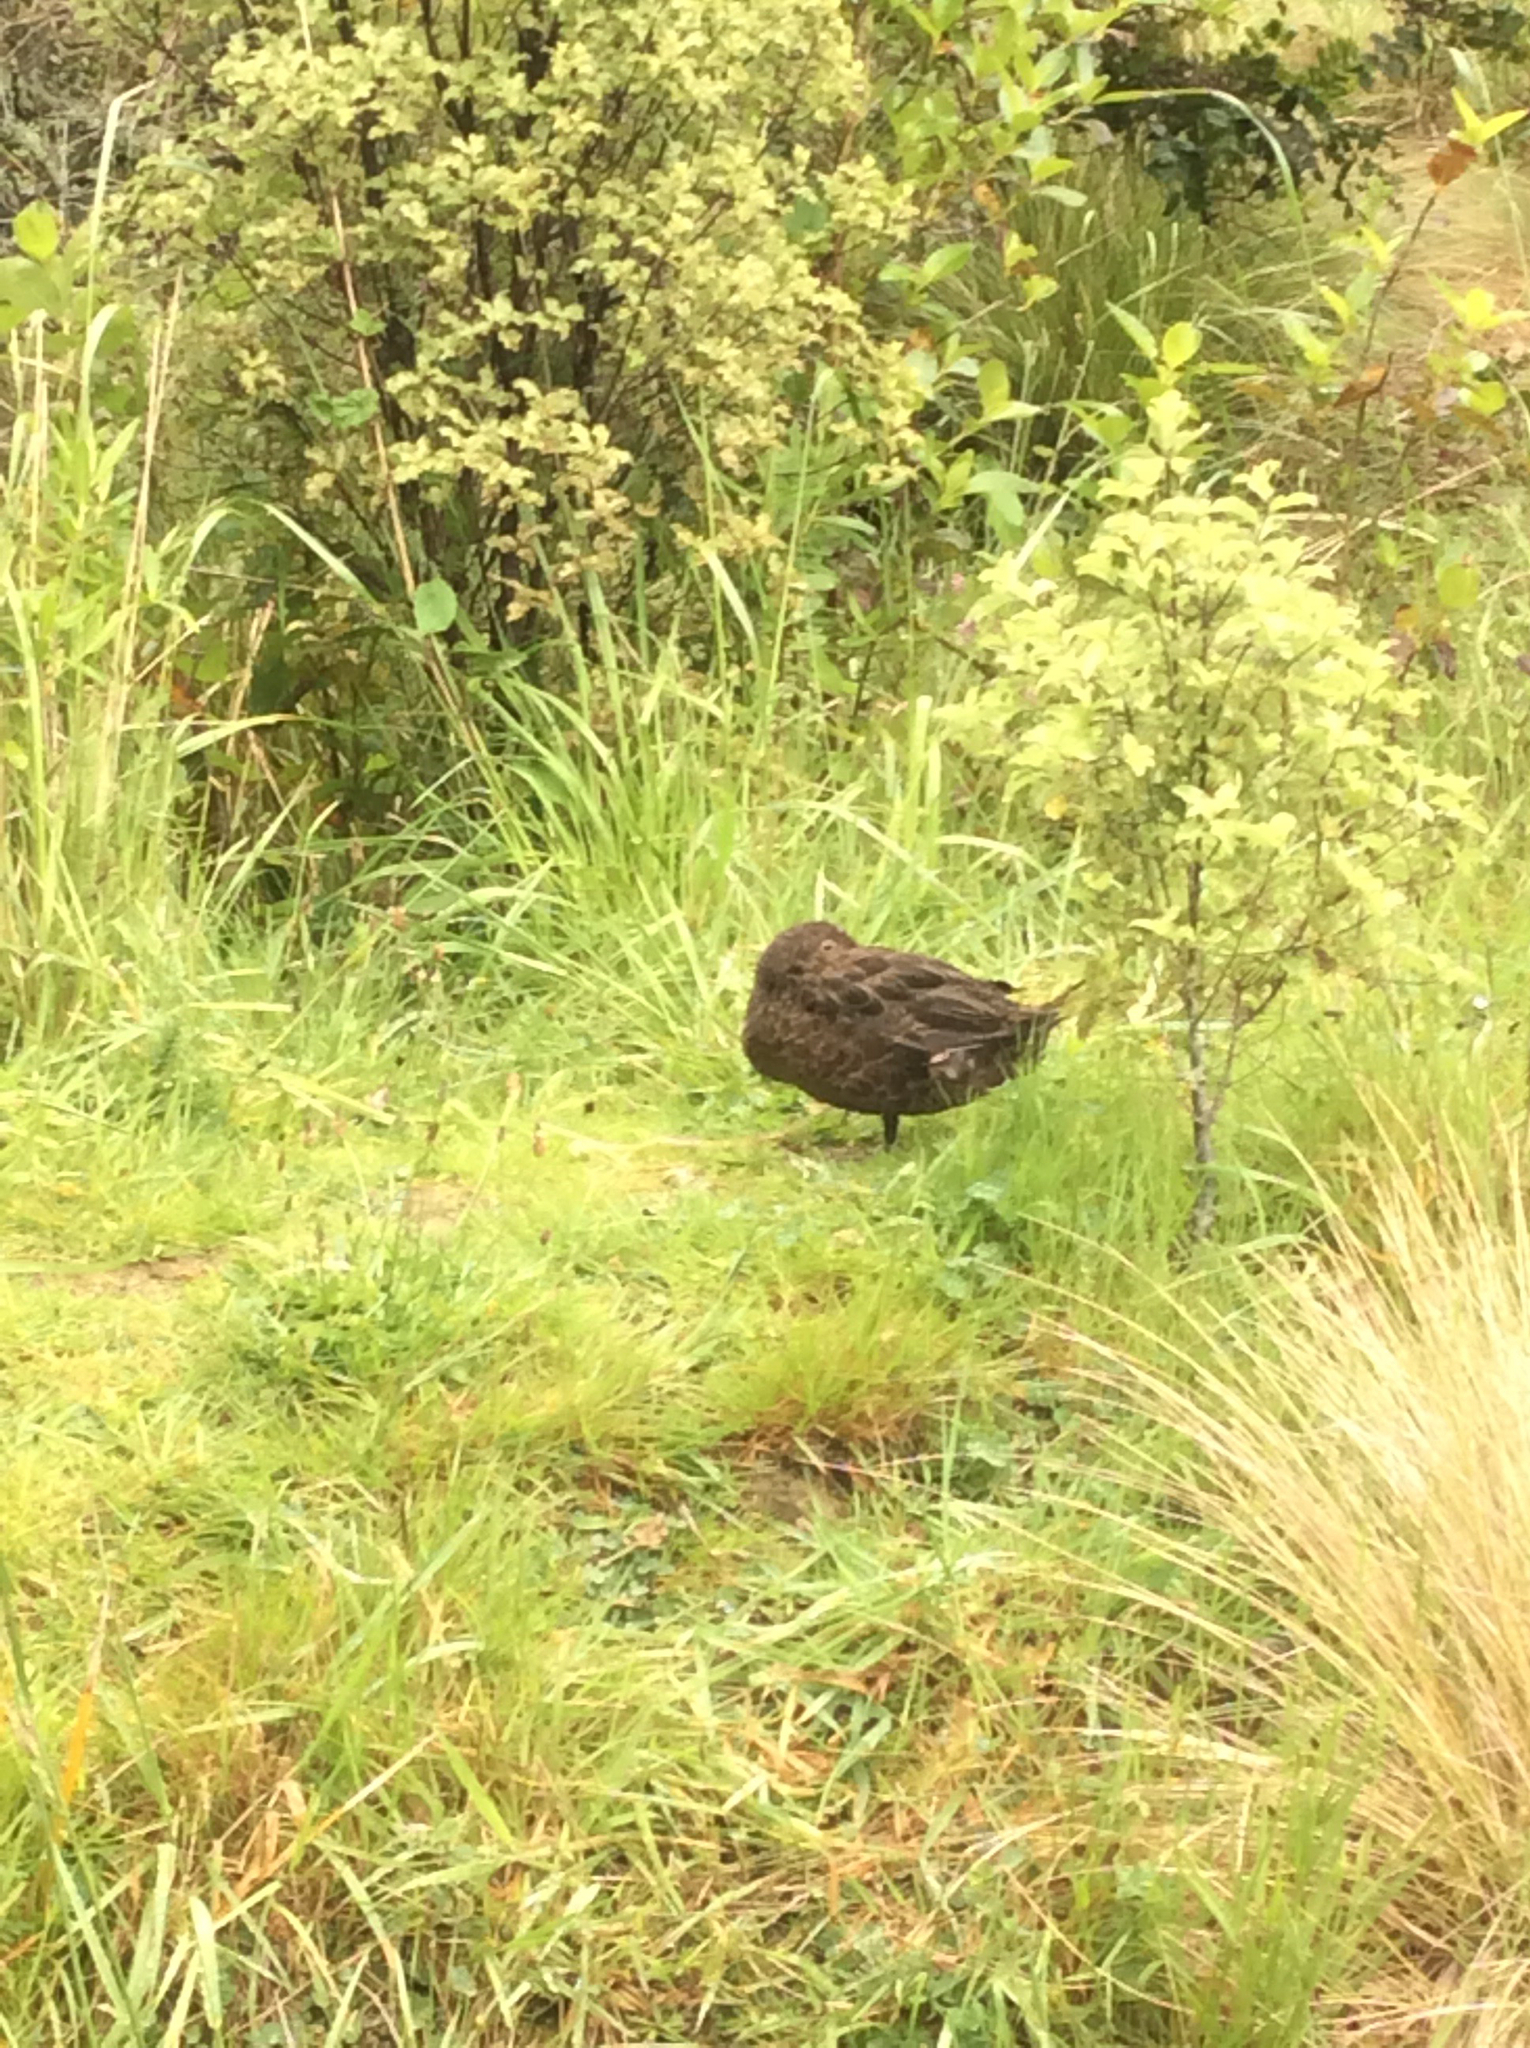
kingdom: Animalia
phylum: Chordata
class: Aves
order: Anseriformes
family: Anatidae
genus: Anas
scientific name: Anas chlorotis
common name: Brown teal
